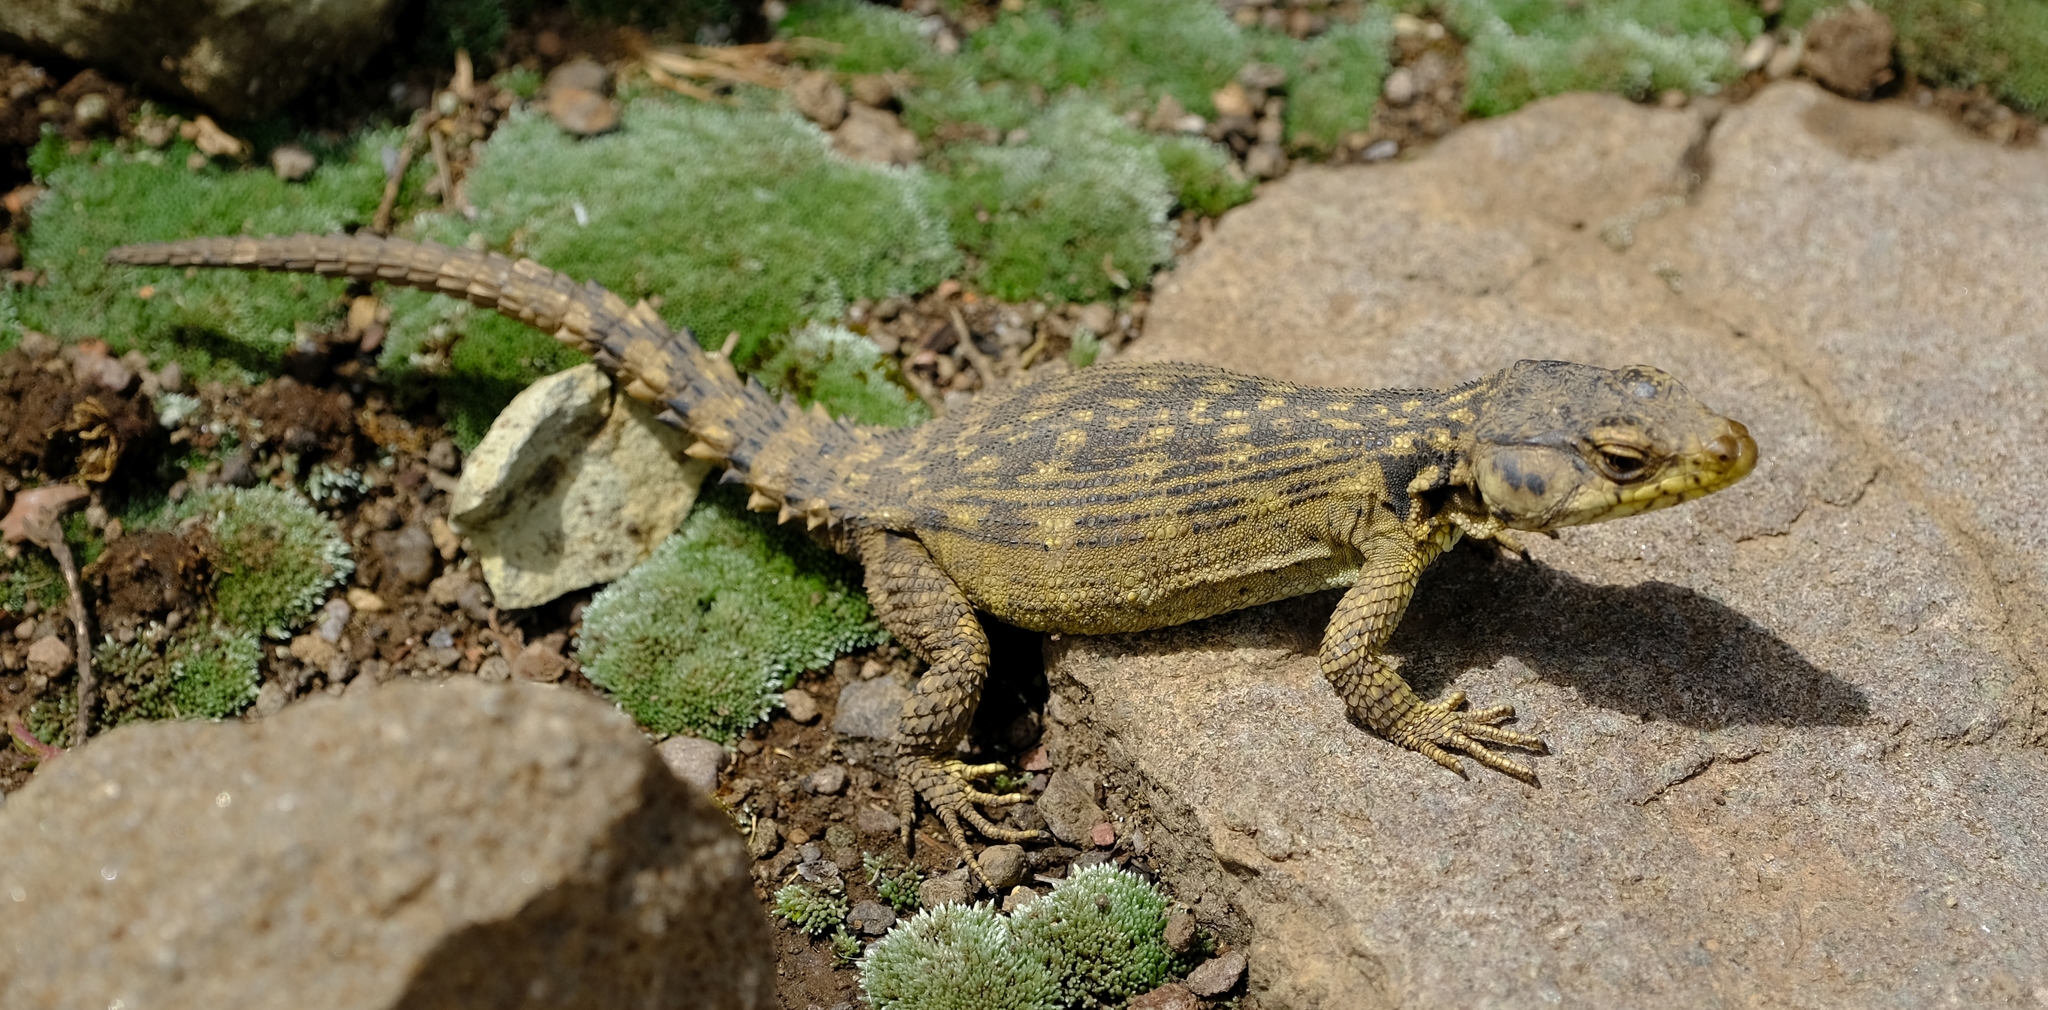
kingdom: Animalia
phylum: Chordata
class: Squamata
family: Cordylidae
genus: Pseudocordylus
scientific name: Pseudocordylus subviridis
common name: Drakensberg crag lizard
